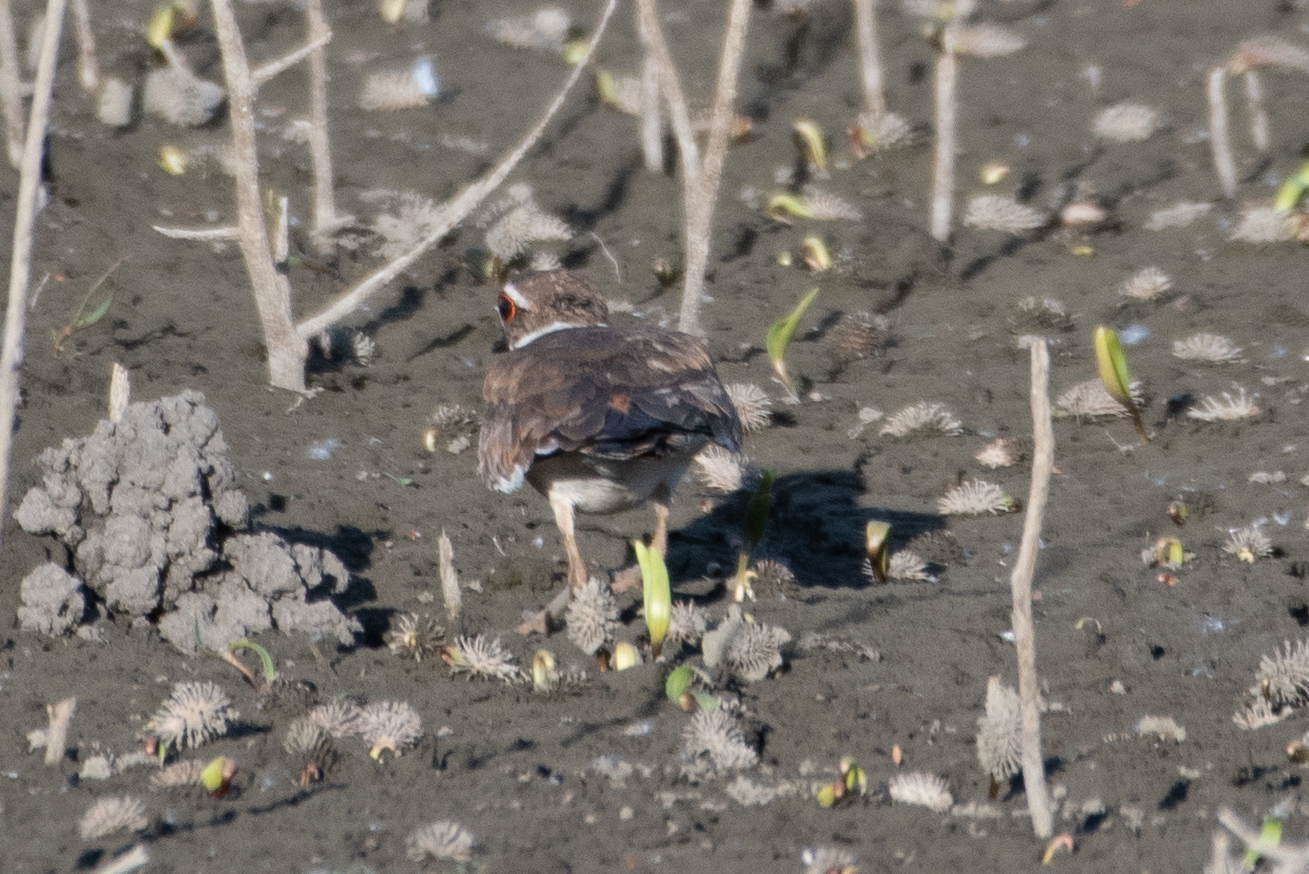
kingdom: Animalia
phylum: Chordata
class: Aves
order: Charadriiformes
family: Charadriidae
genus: Charadrius
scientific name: Charadrius vociferus
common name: Killdeer
